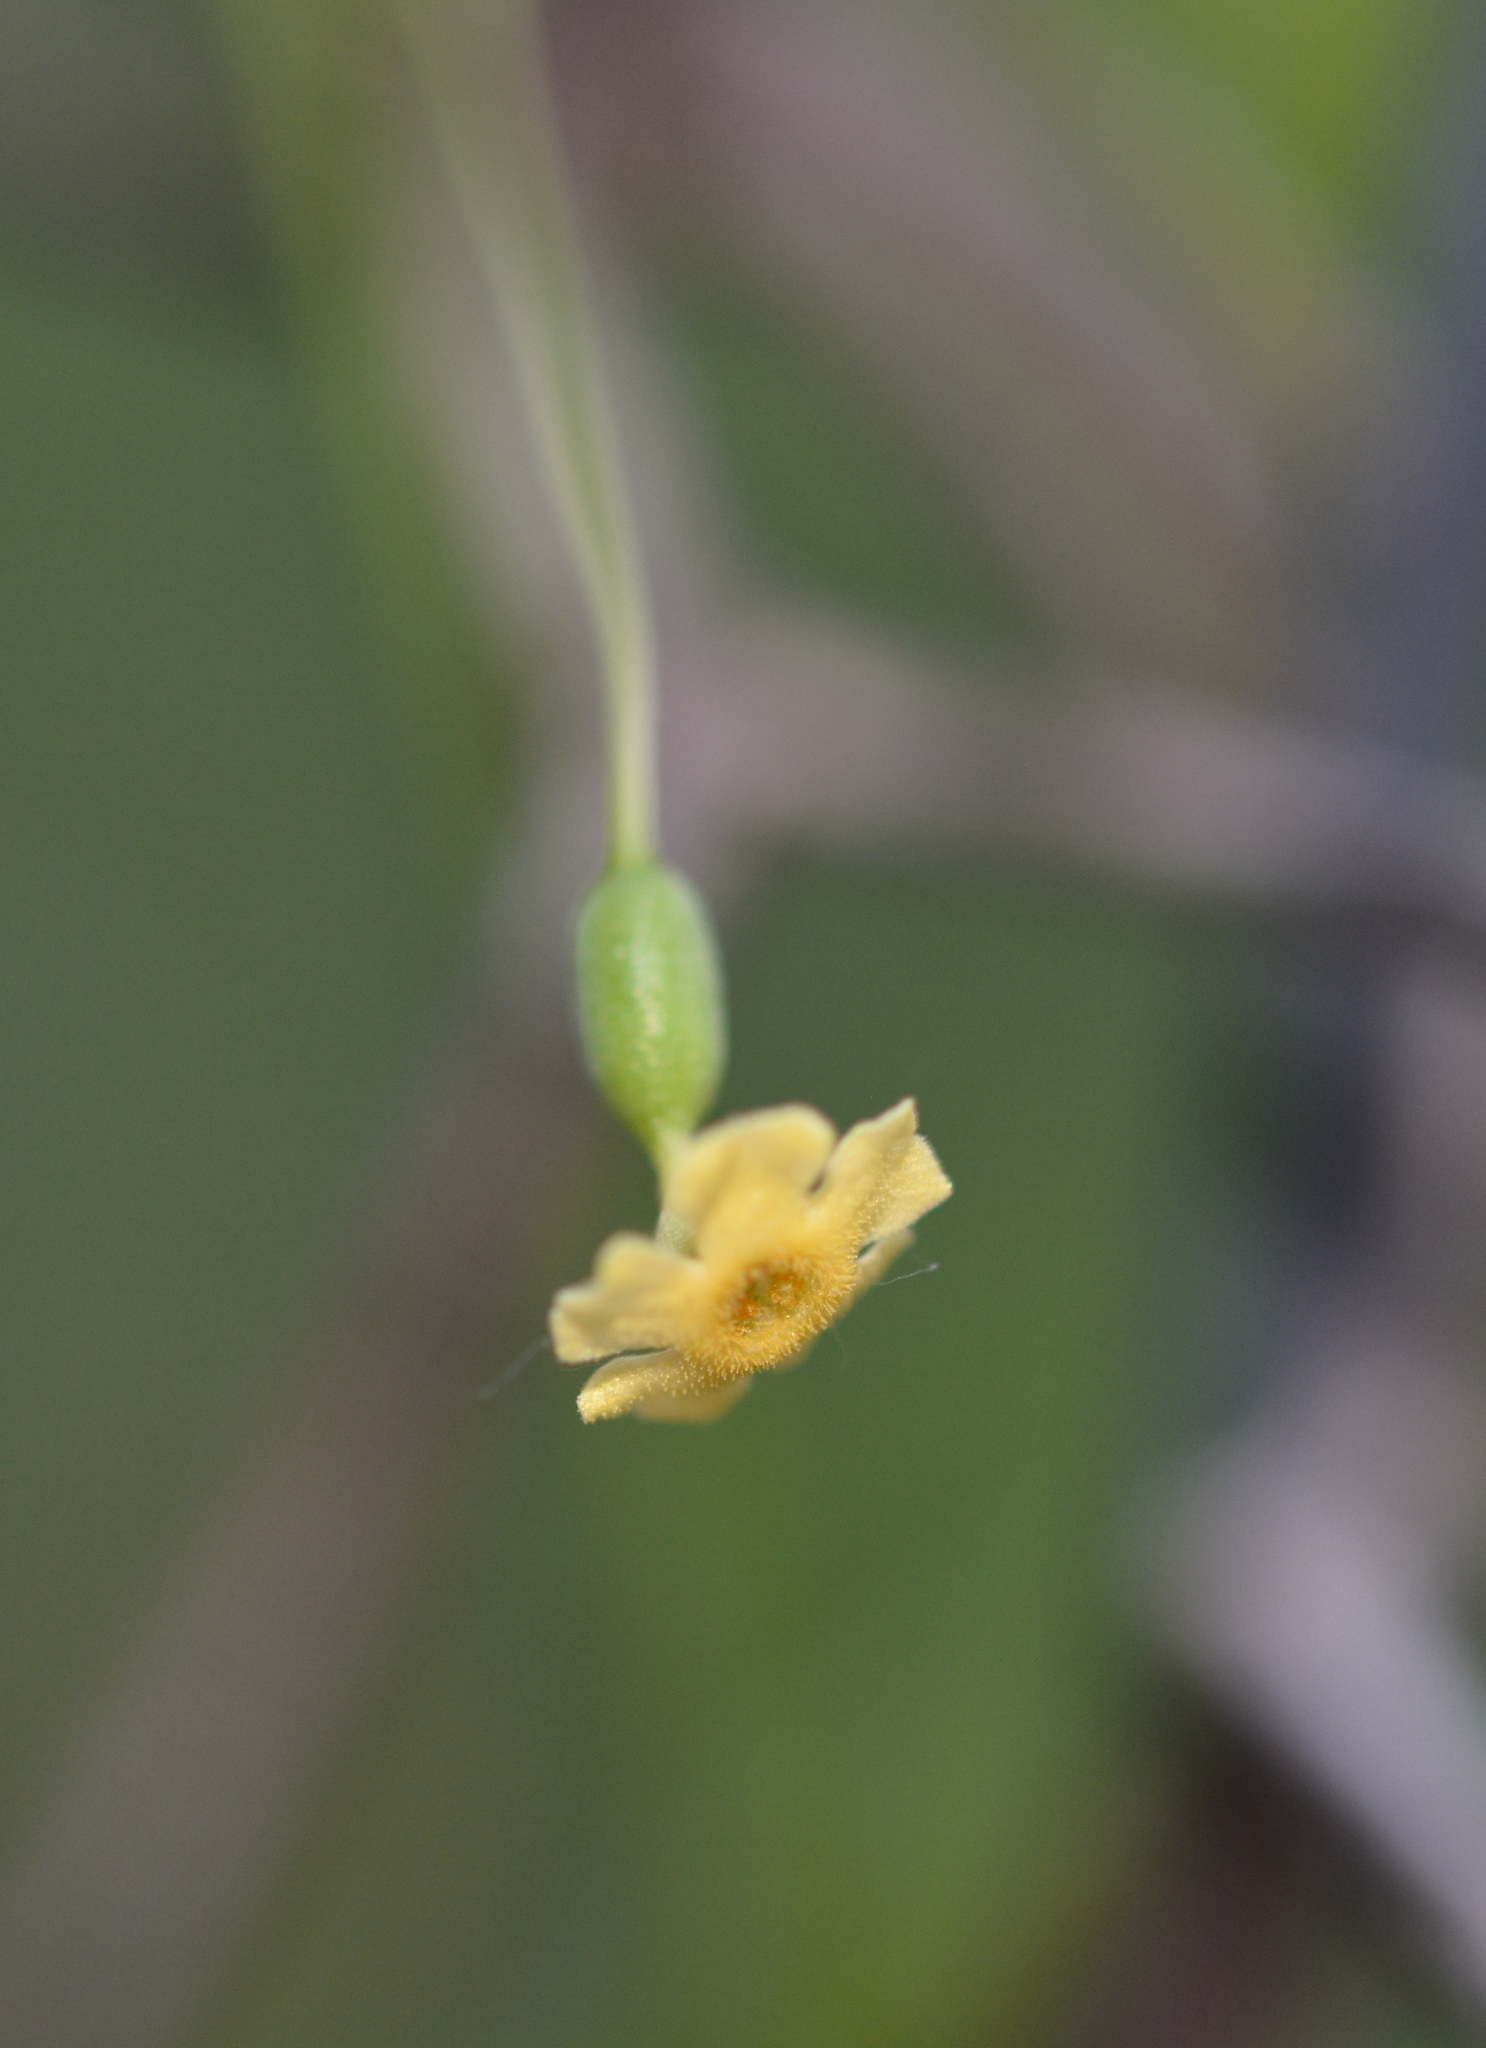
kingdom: Plantae
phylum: Tracheophyta
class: Magnoliopsida
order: Cucurbitales
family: Cucurbitaceae
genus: Melothria
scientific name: Melothria pendula
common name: Creeping-cucumber
